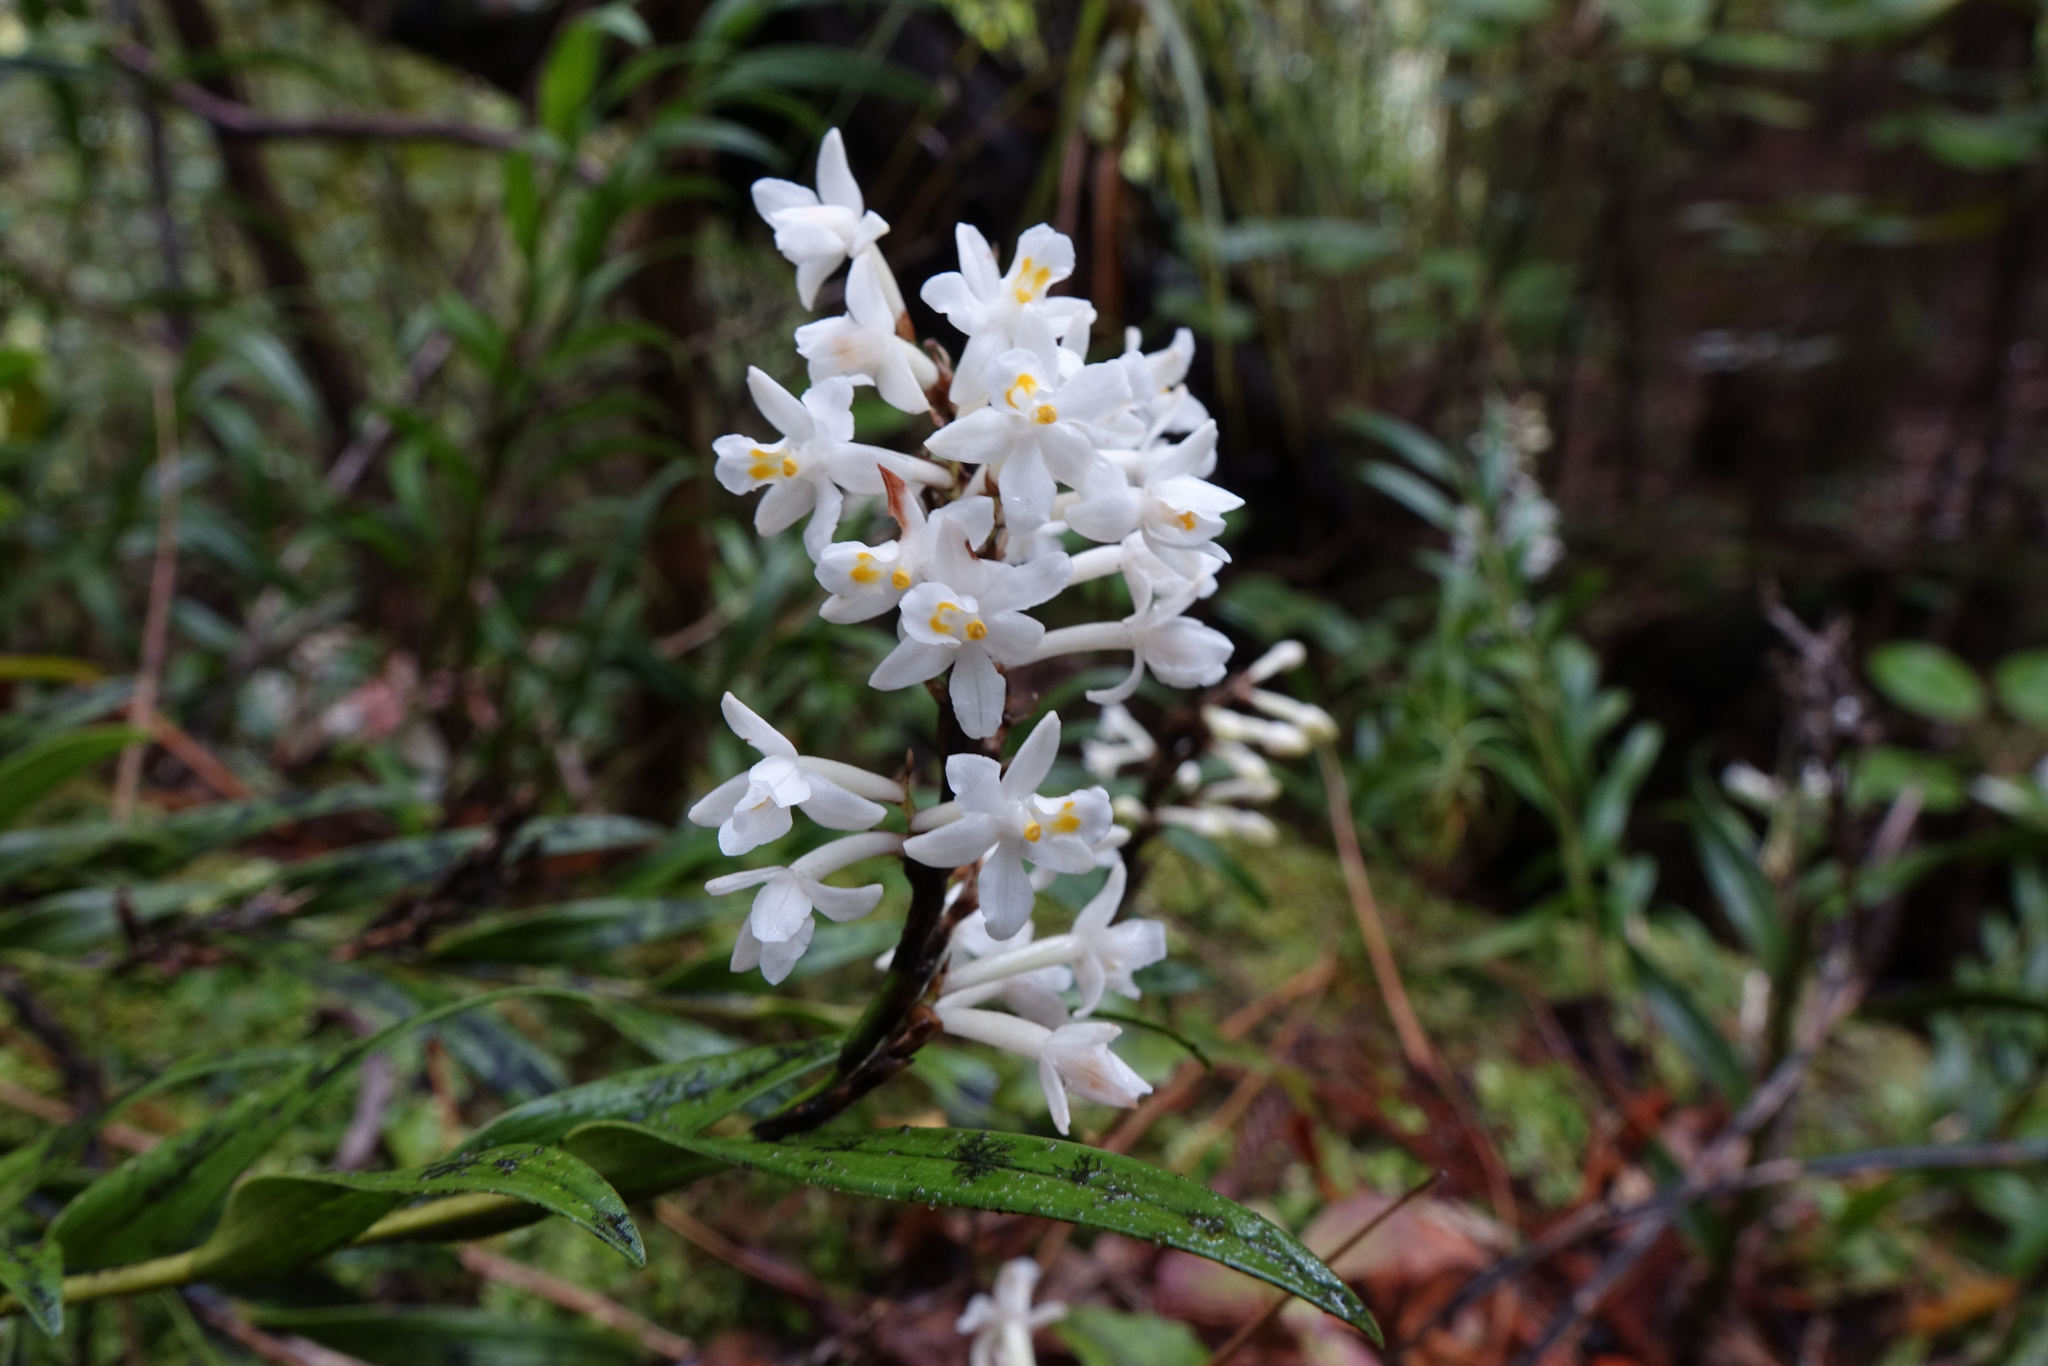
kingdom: Plantae
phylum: Tracheophyta
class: Liliopsida
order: Asparagales
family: Orchidaceae
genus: Earina
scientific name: Earina autumnalis
